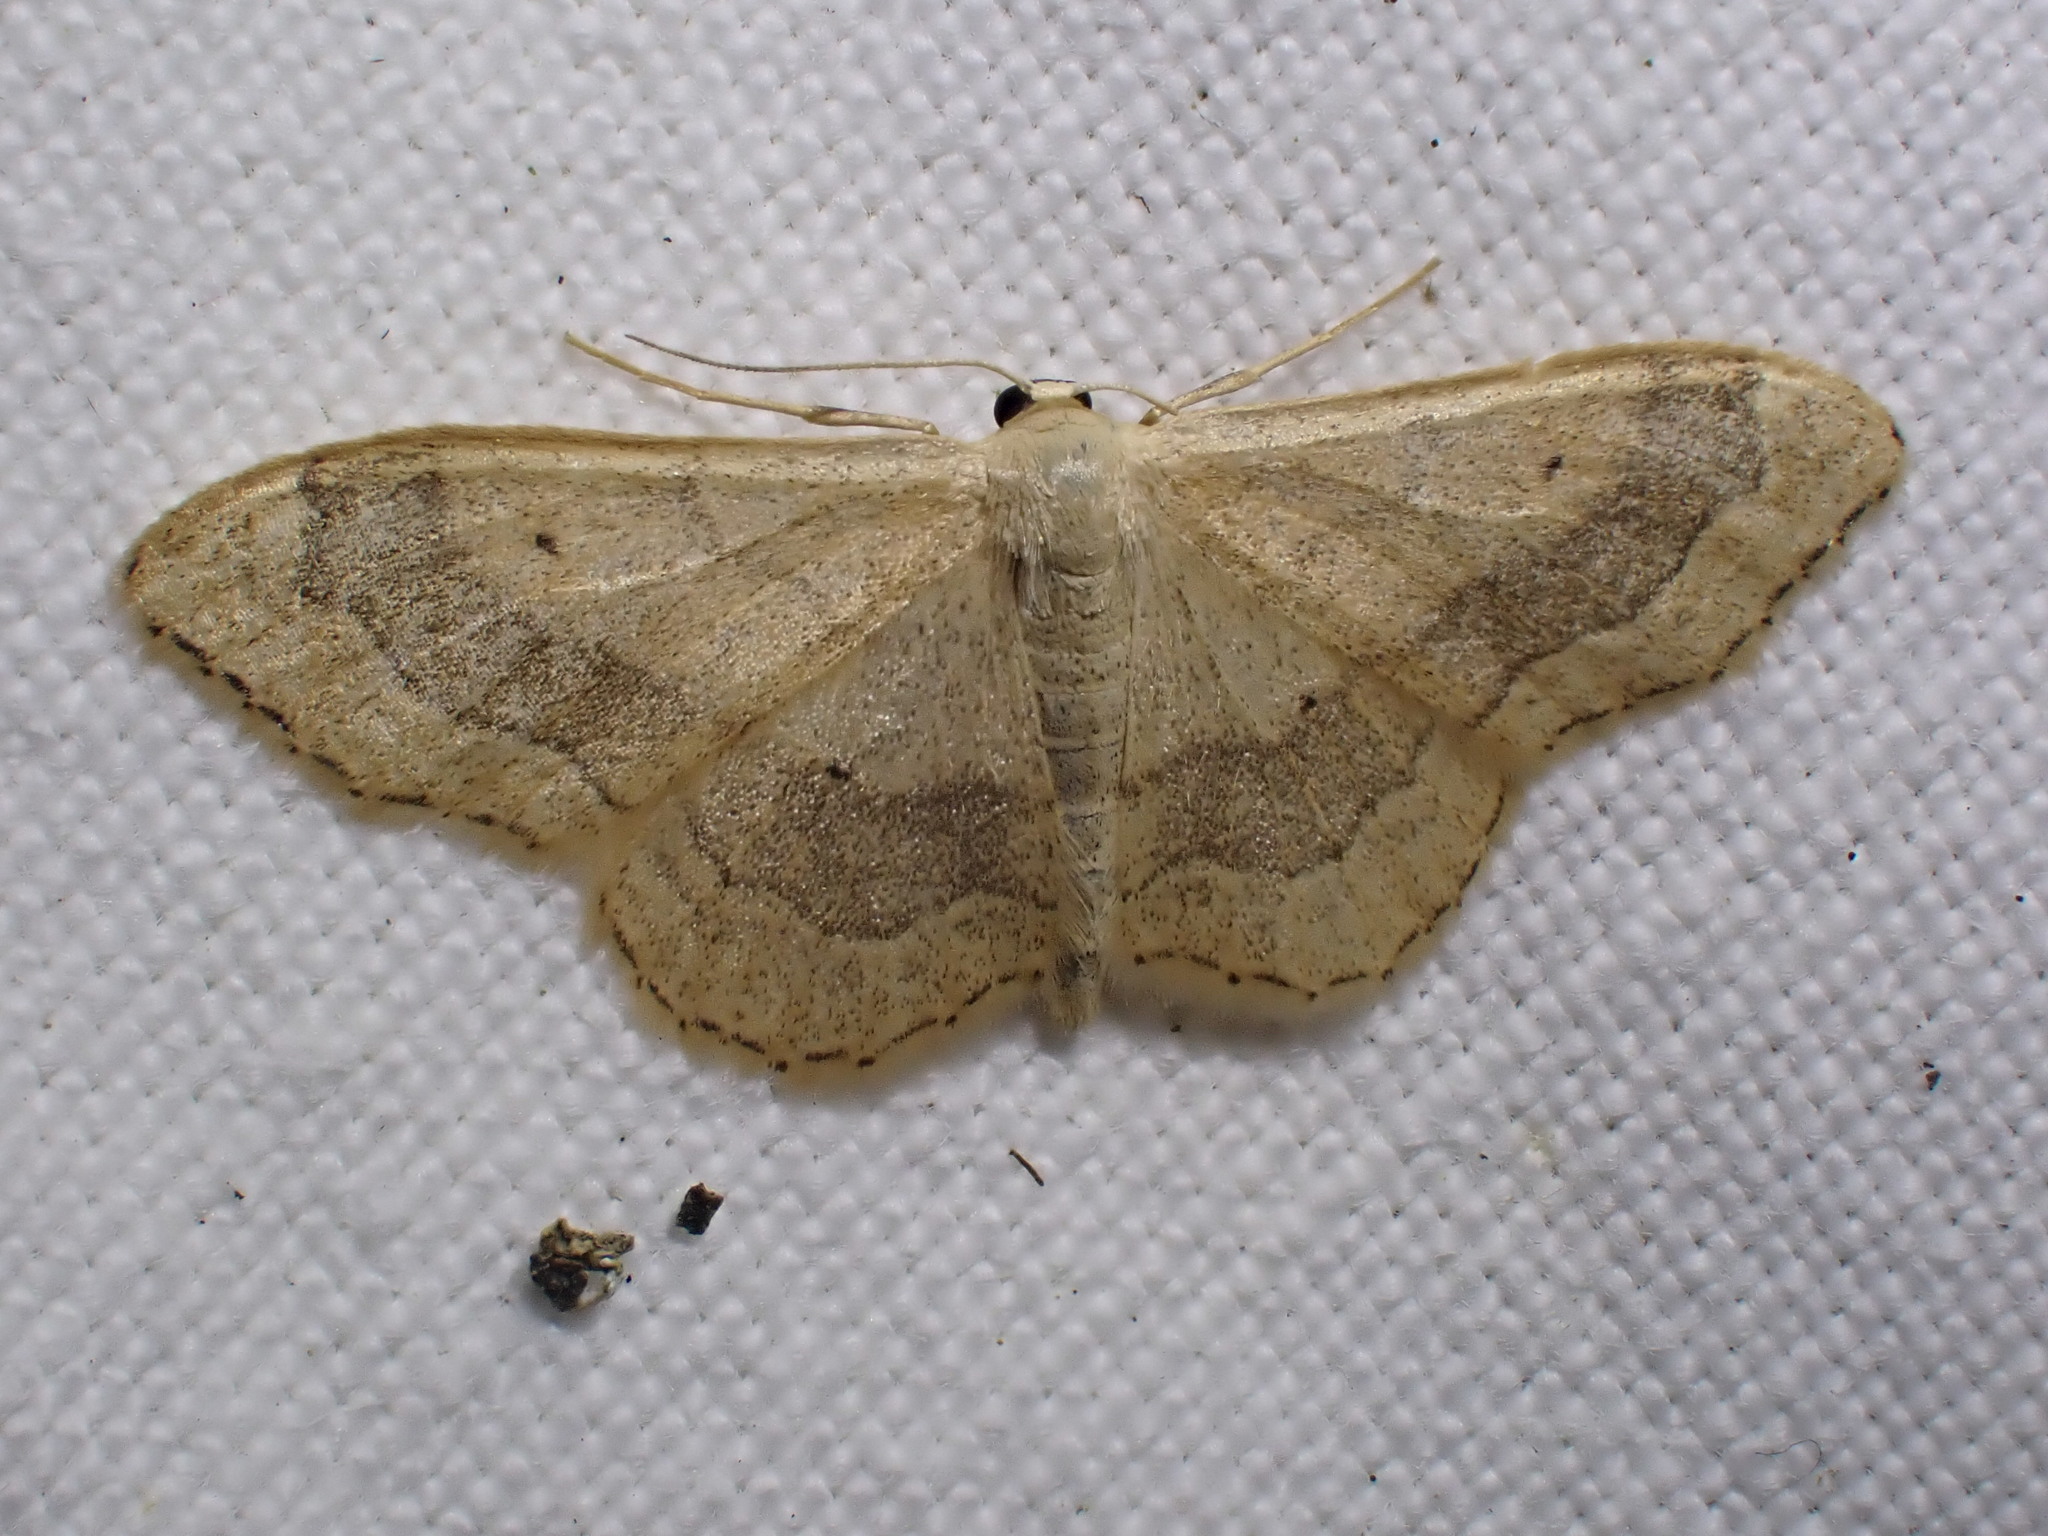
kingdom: Animalia
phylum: Arthropoda
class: Insecta
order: Lepidoptera
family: Geometridae
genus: Idaea
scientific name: Idaea aversata
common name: Riband wave
